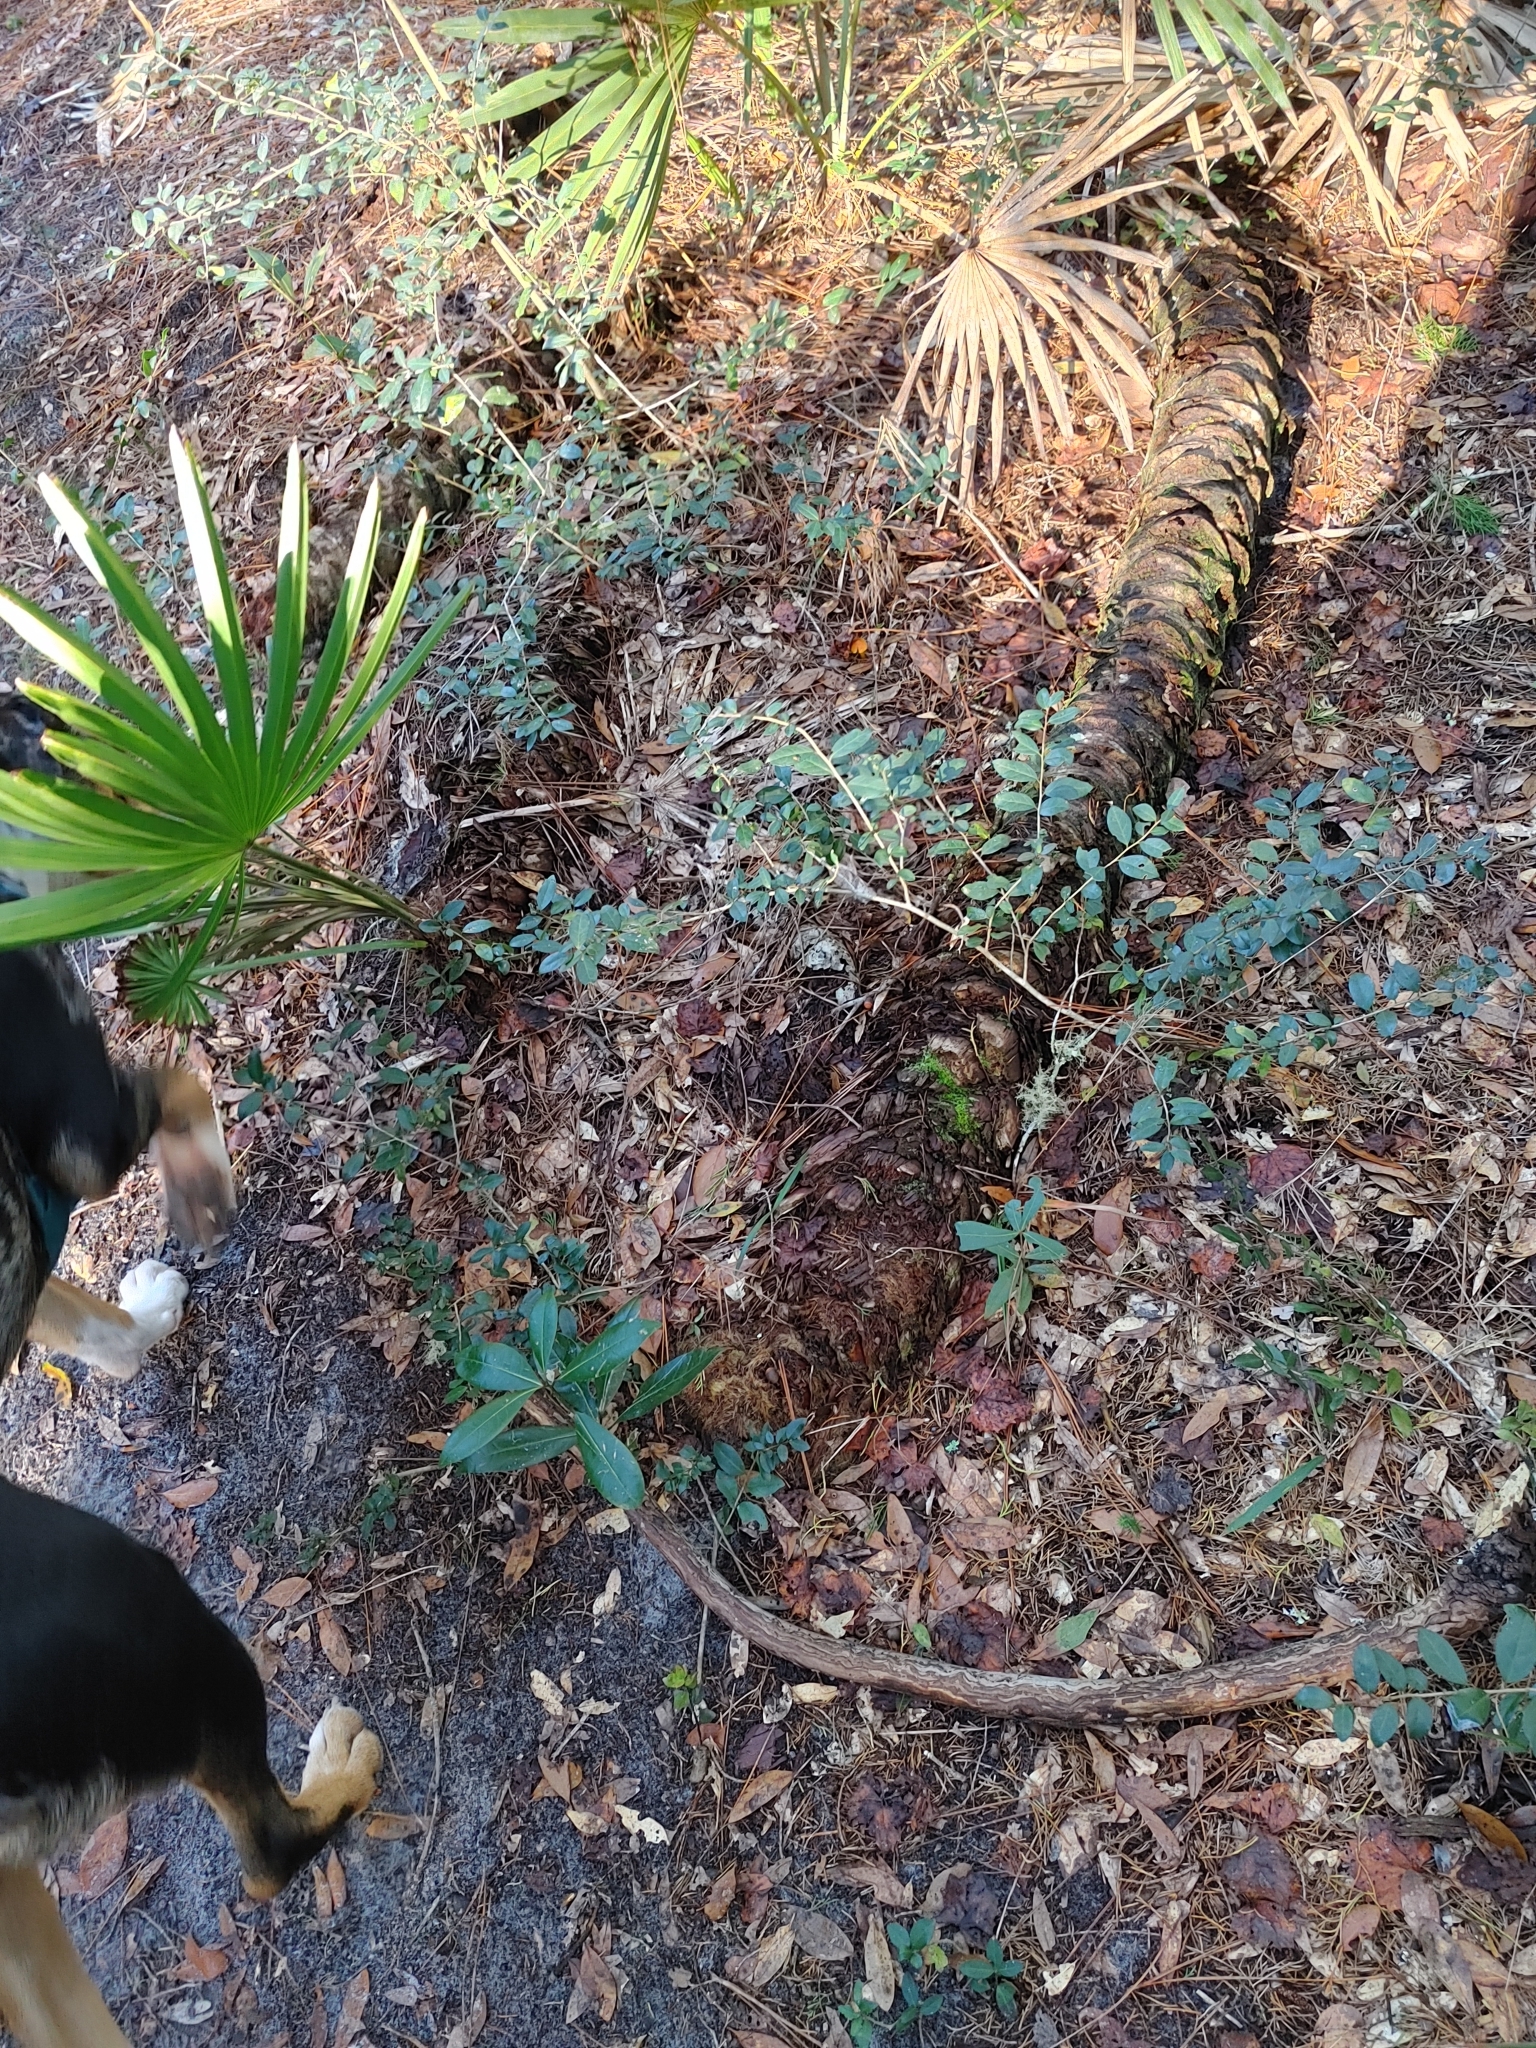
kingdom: Plantae
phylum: Tracheophyta
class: Liliopsida
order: Arecales
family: Arecaceae
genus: Serenoa
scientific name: Serenoa repens
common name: Saw-palmetto
